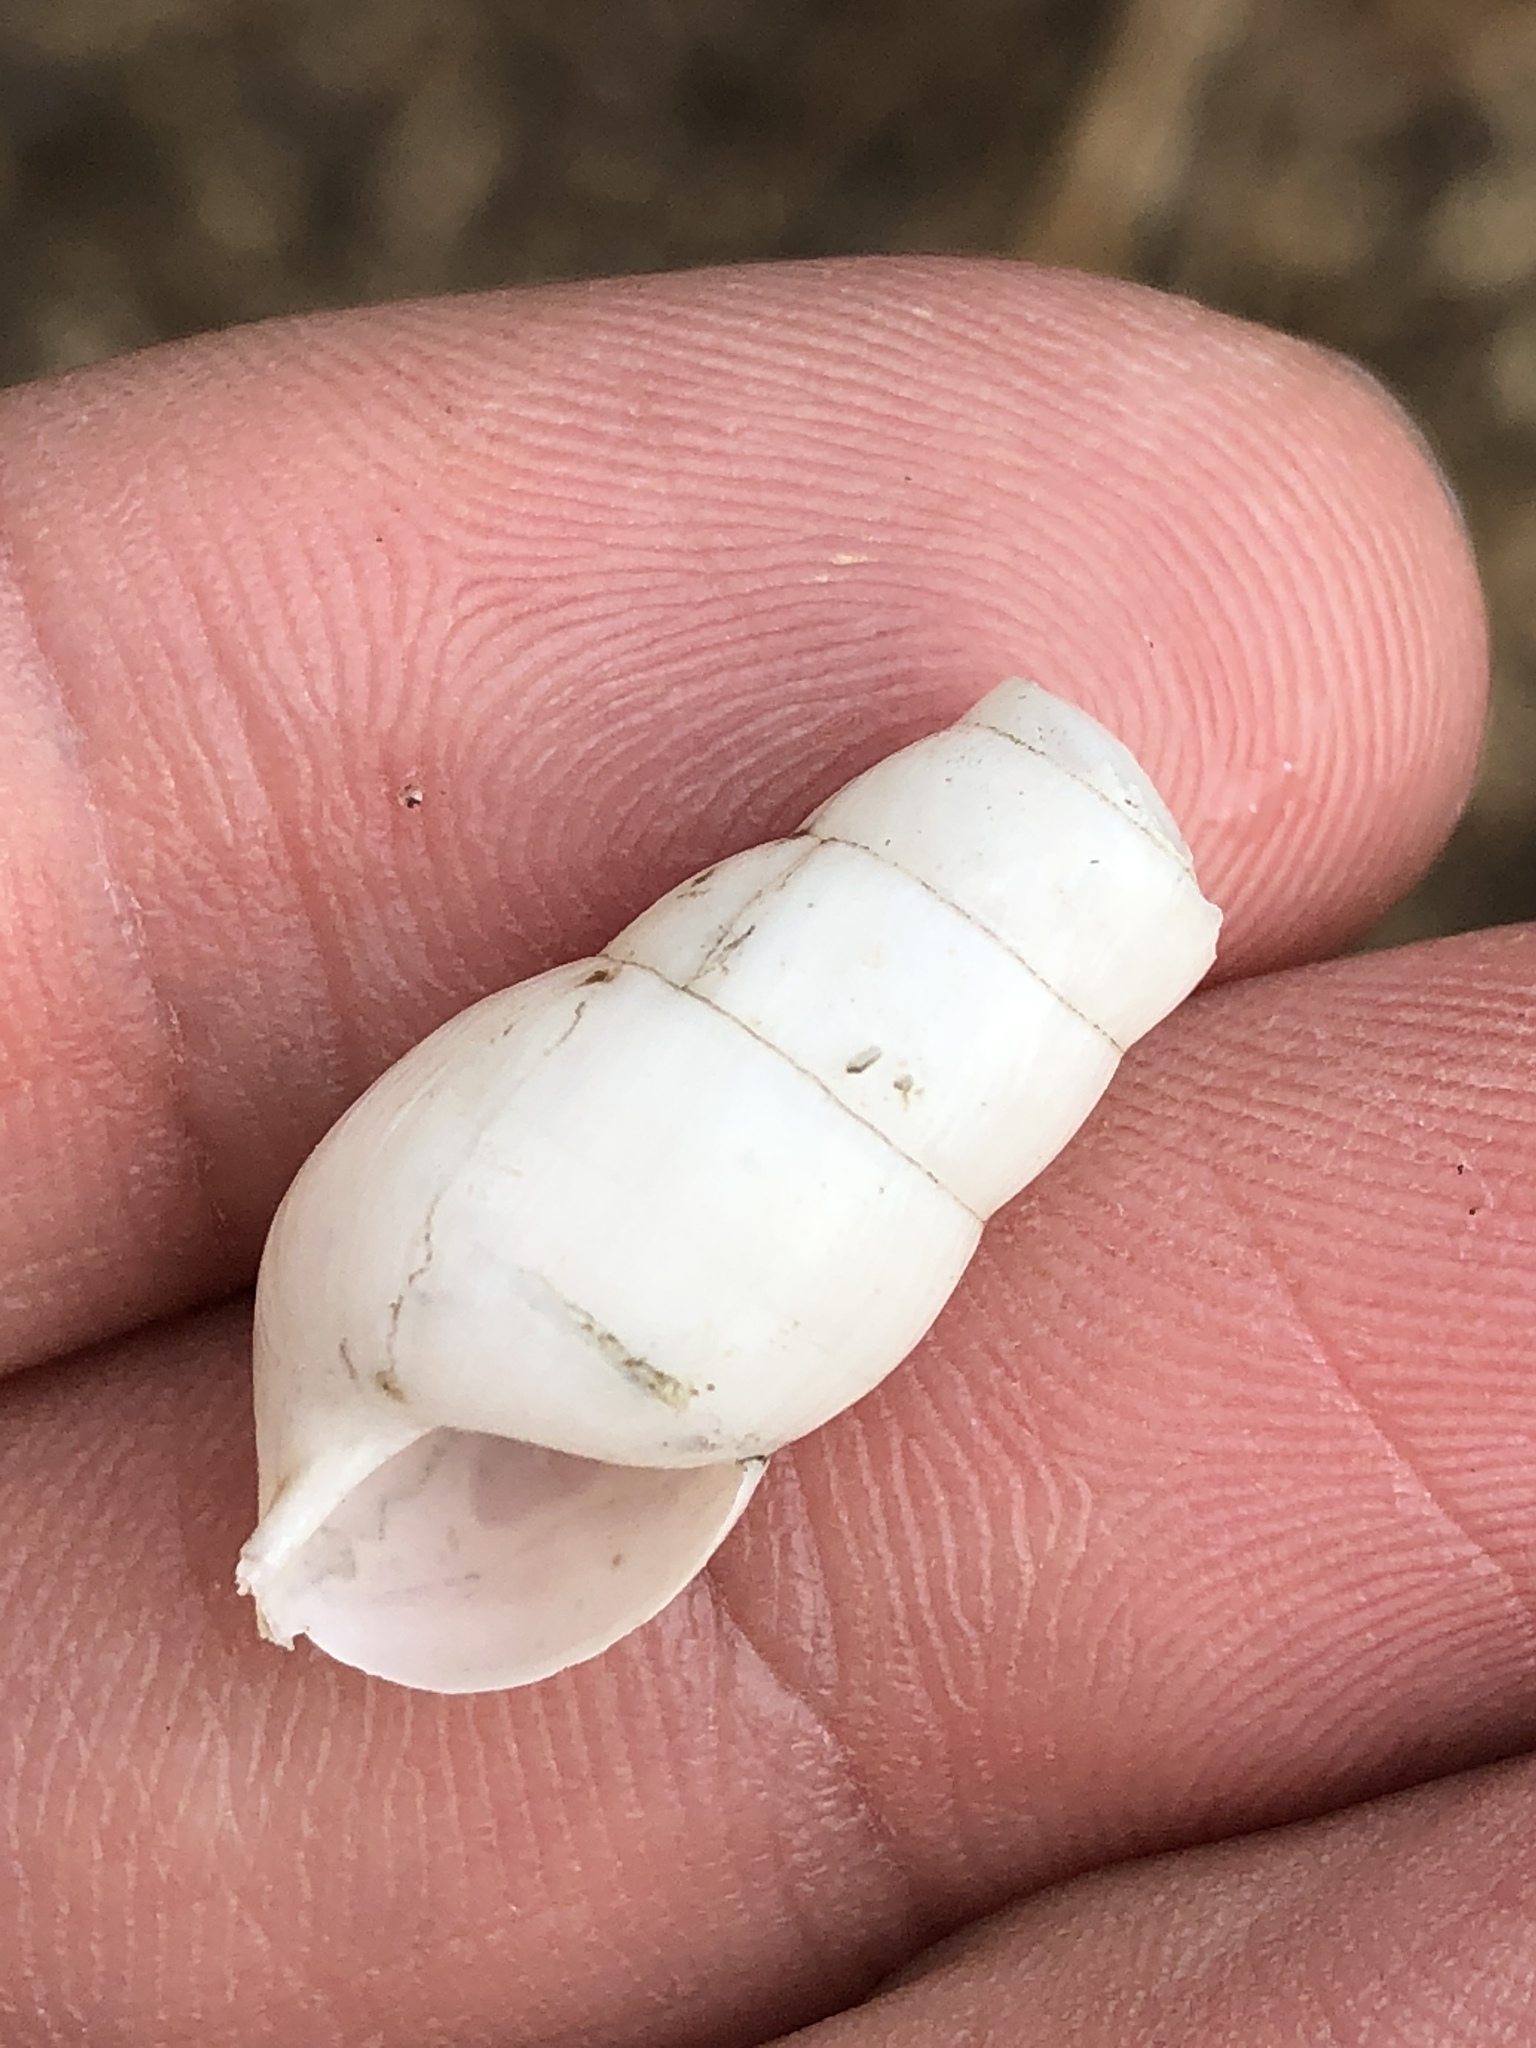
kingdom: Animalia
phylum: Mollusca
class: Gastropoda
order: Stylommatophora
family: Achatinidae
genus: Rumina
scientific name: Rumina decollata
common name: Decollate snail
